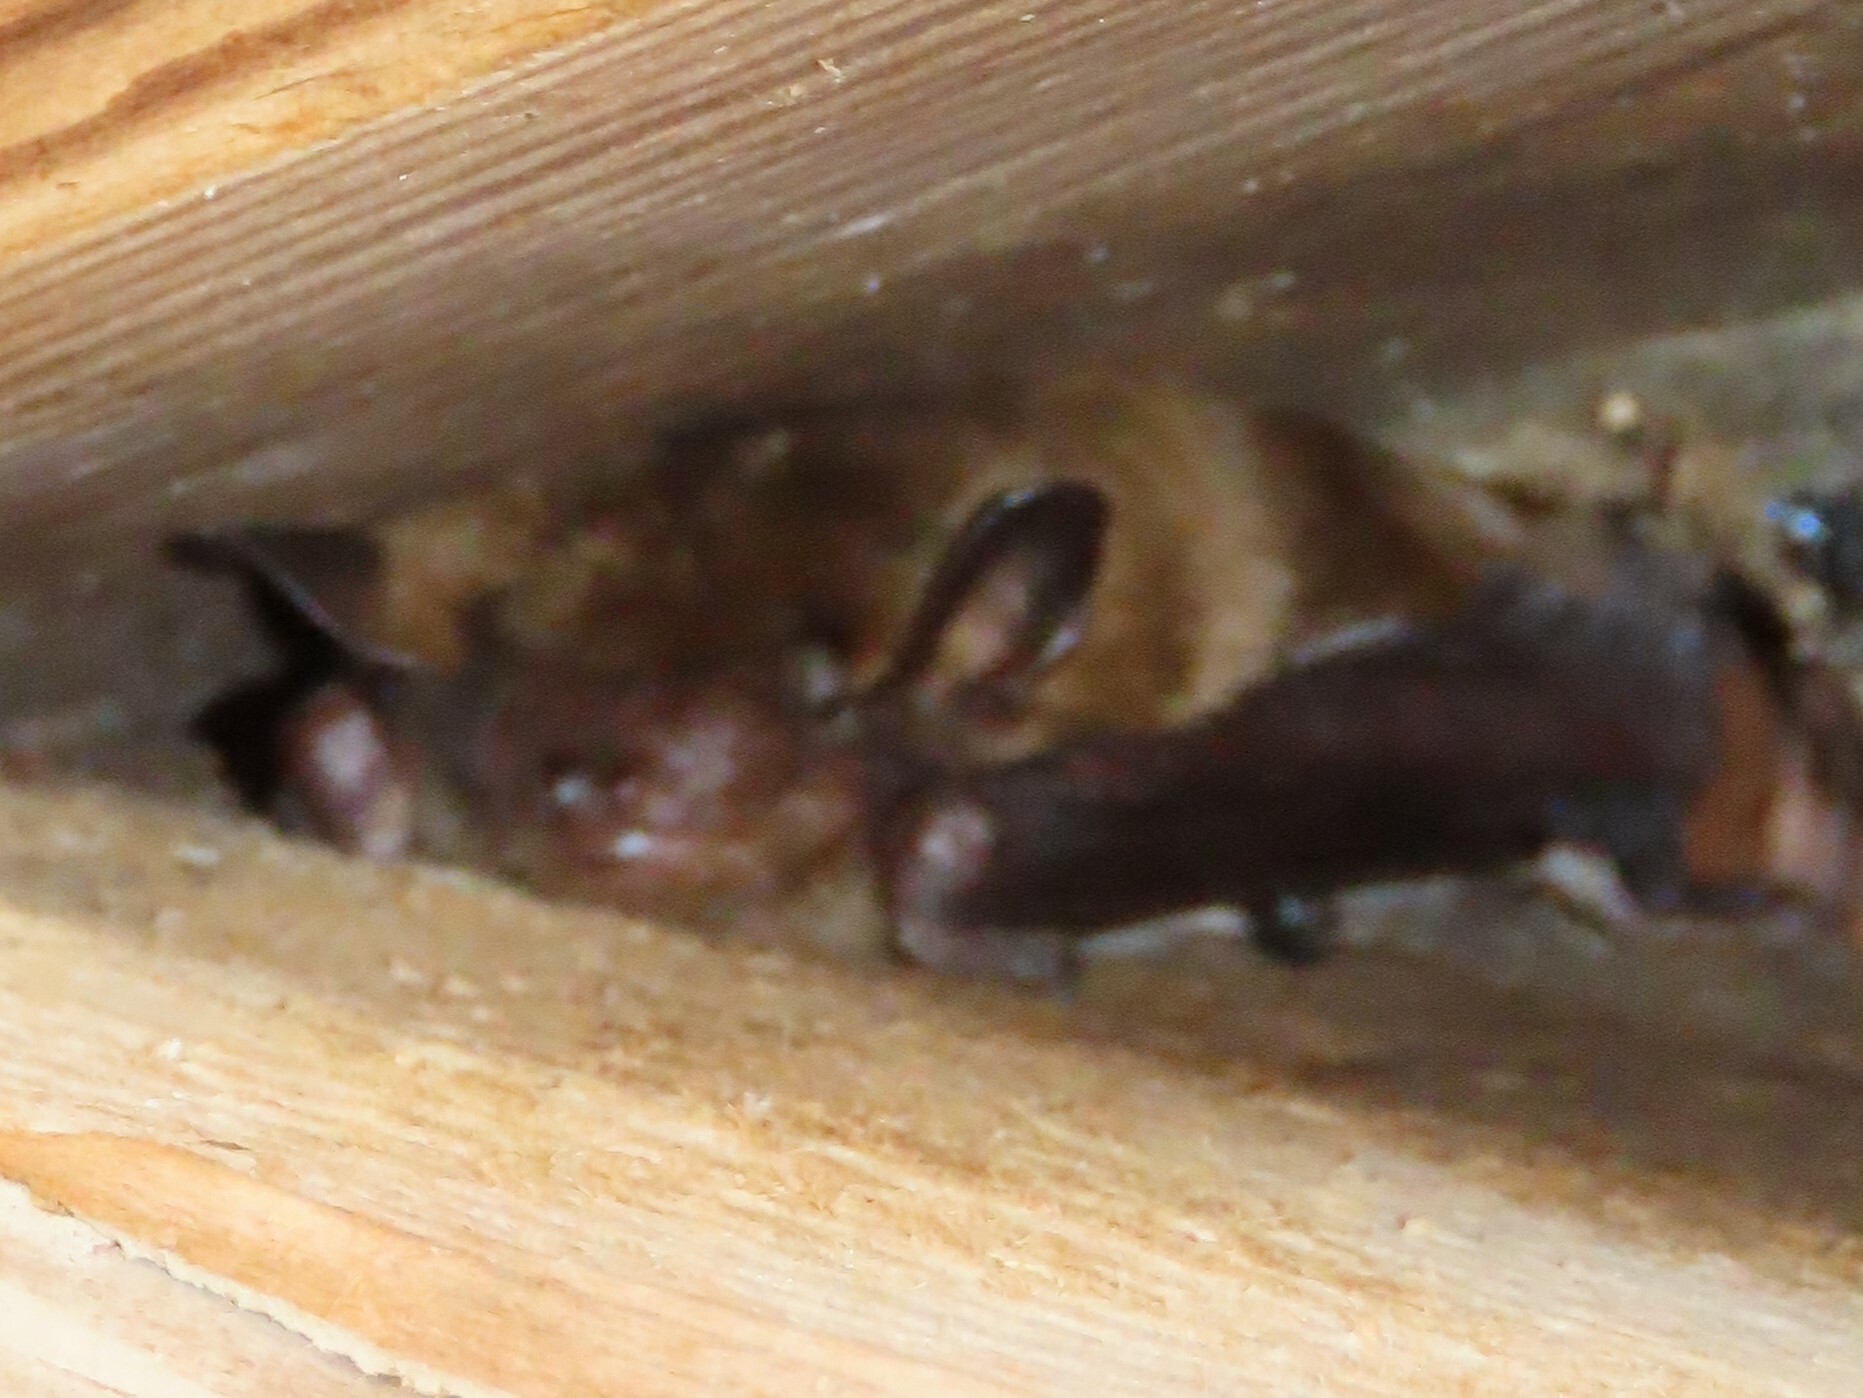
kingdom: Animalia
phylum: Chordata
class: Mammalia
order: Chiroptera
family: Vespertilionidae
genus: Eptesicus
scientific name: Eptesicus fuscus
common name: Big brown bat
